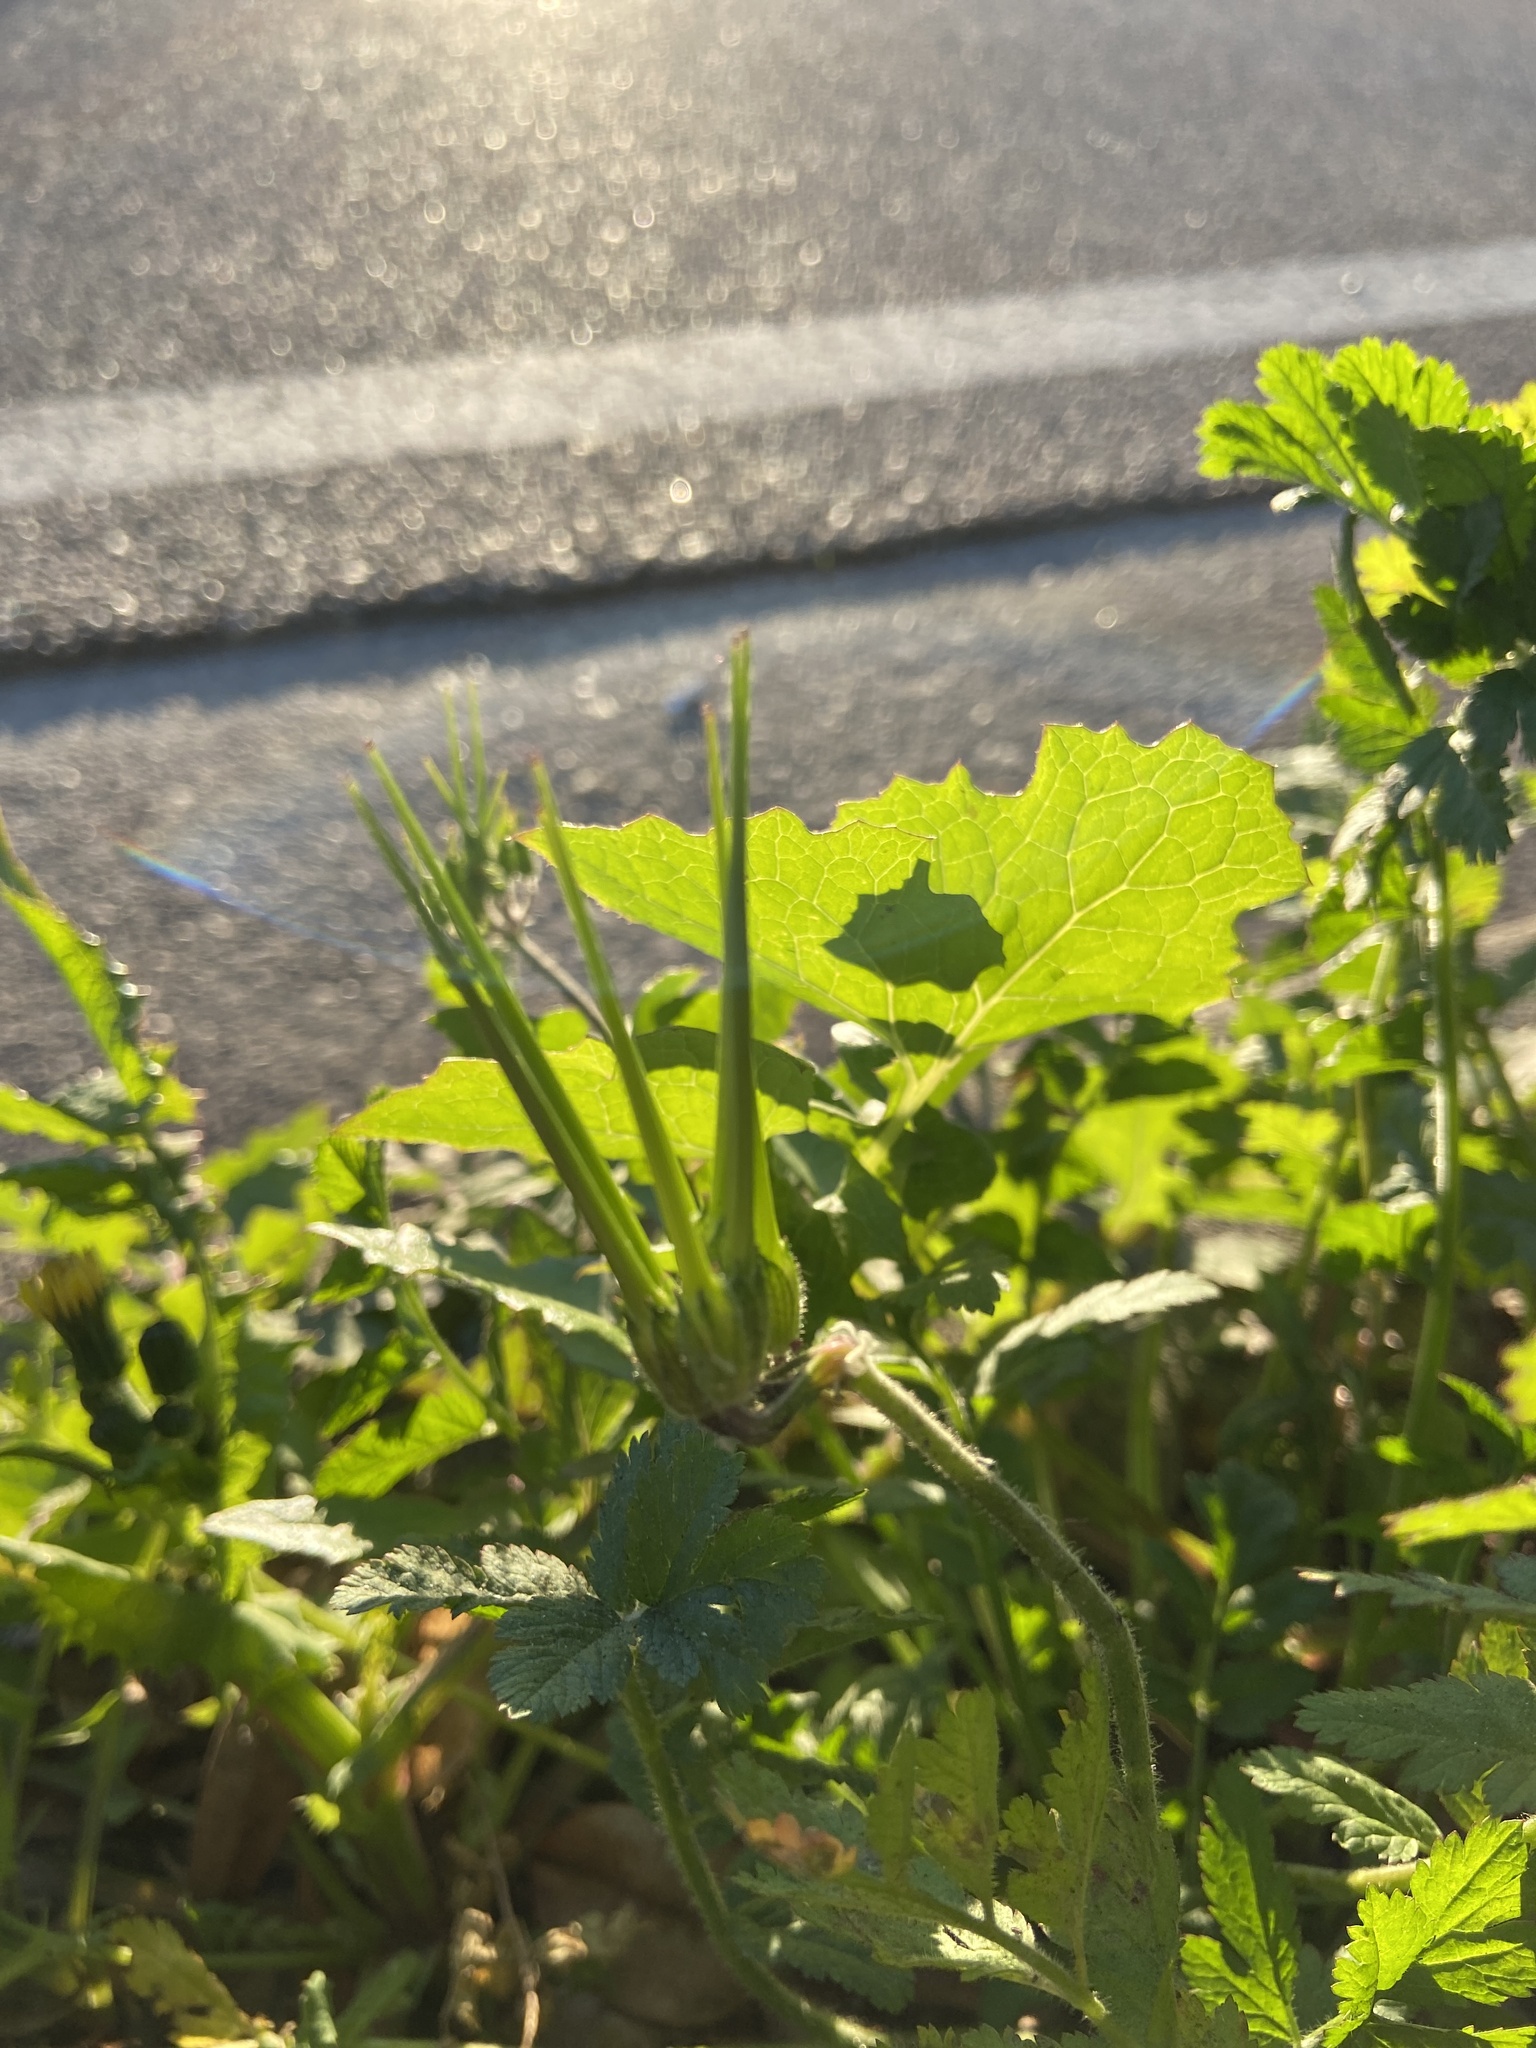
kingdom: Plantae
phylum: Tracheophyta
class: Magnoliopsida
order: Geraniales
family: Geraniaceae
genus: Erodium
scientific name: Erodium moschatum
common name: Musk stork's-bill
